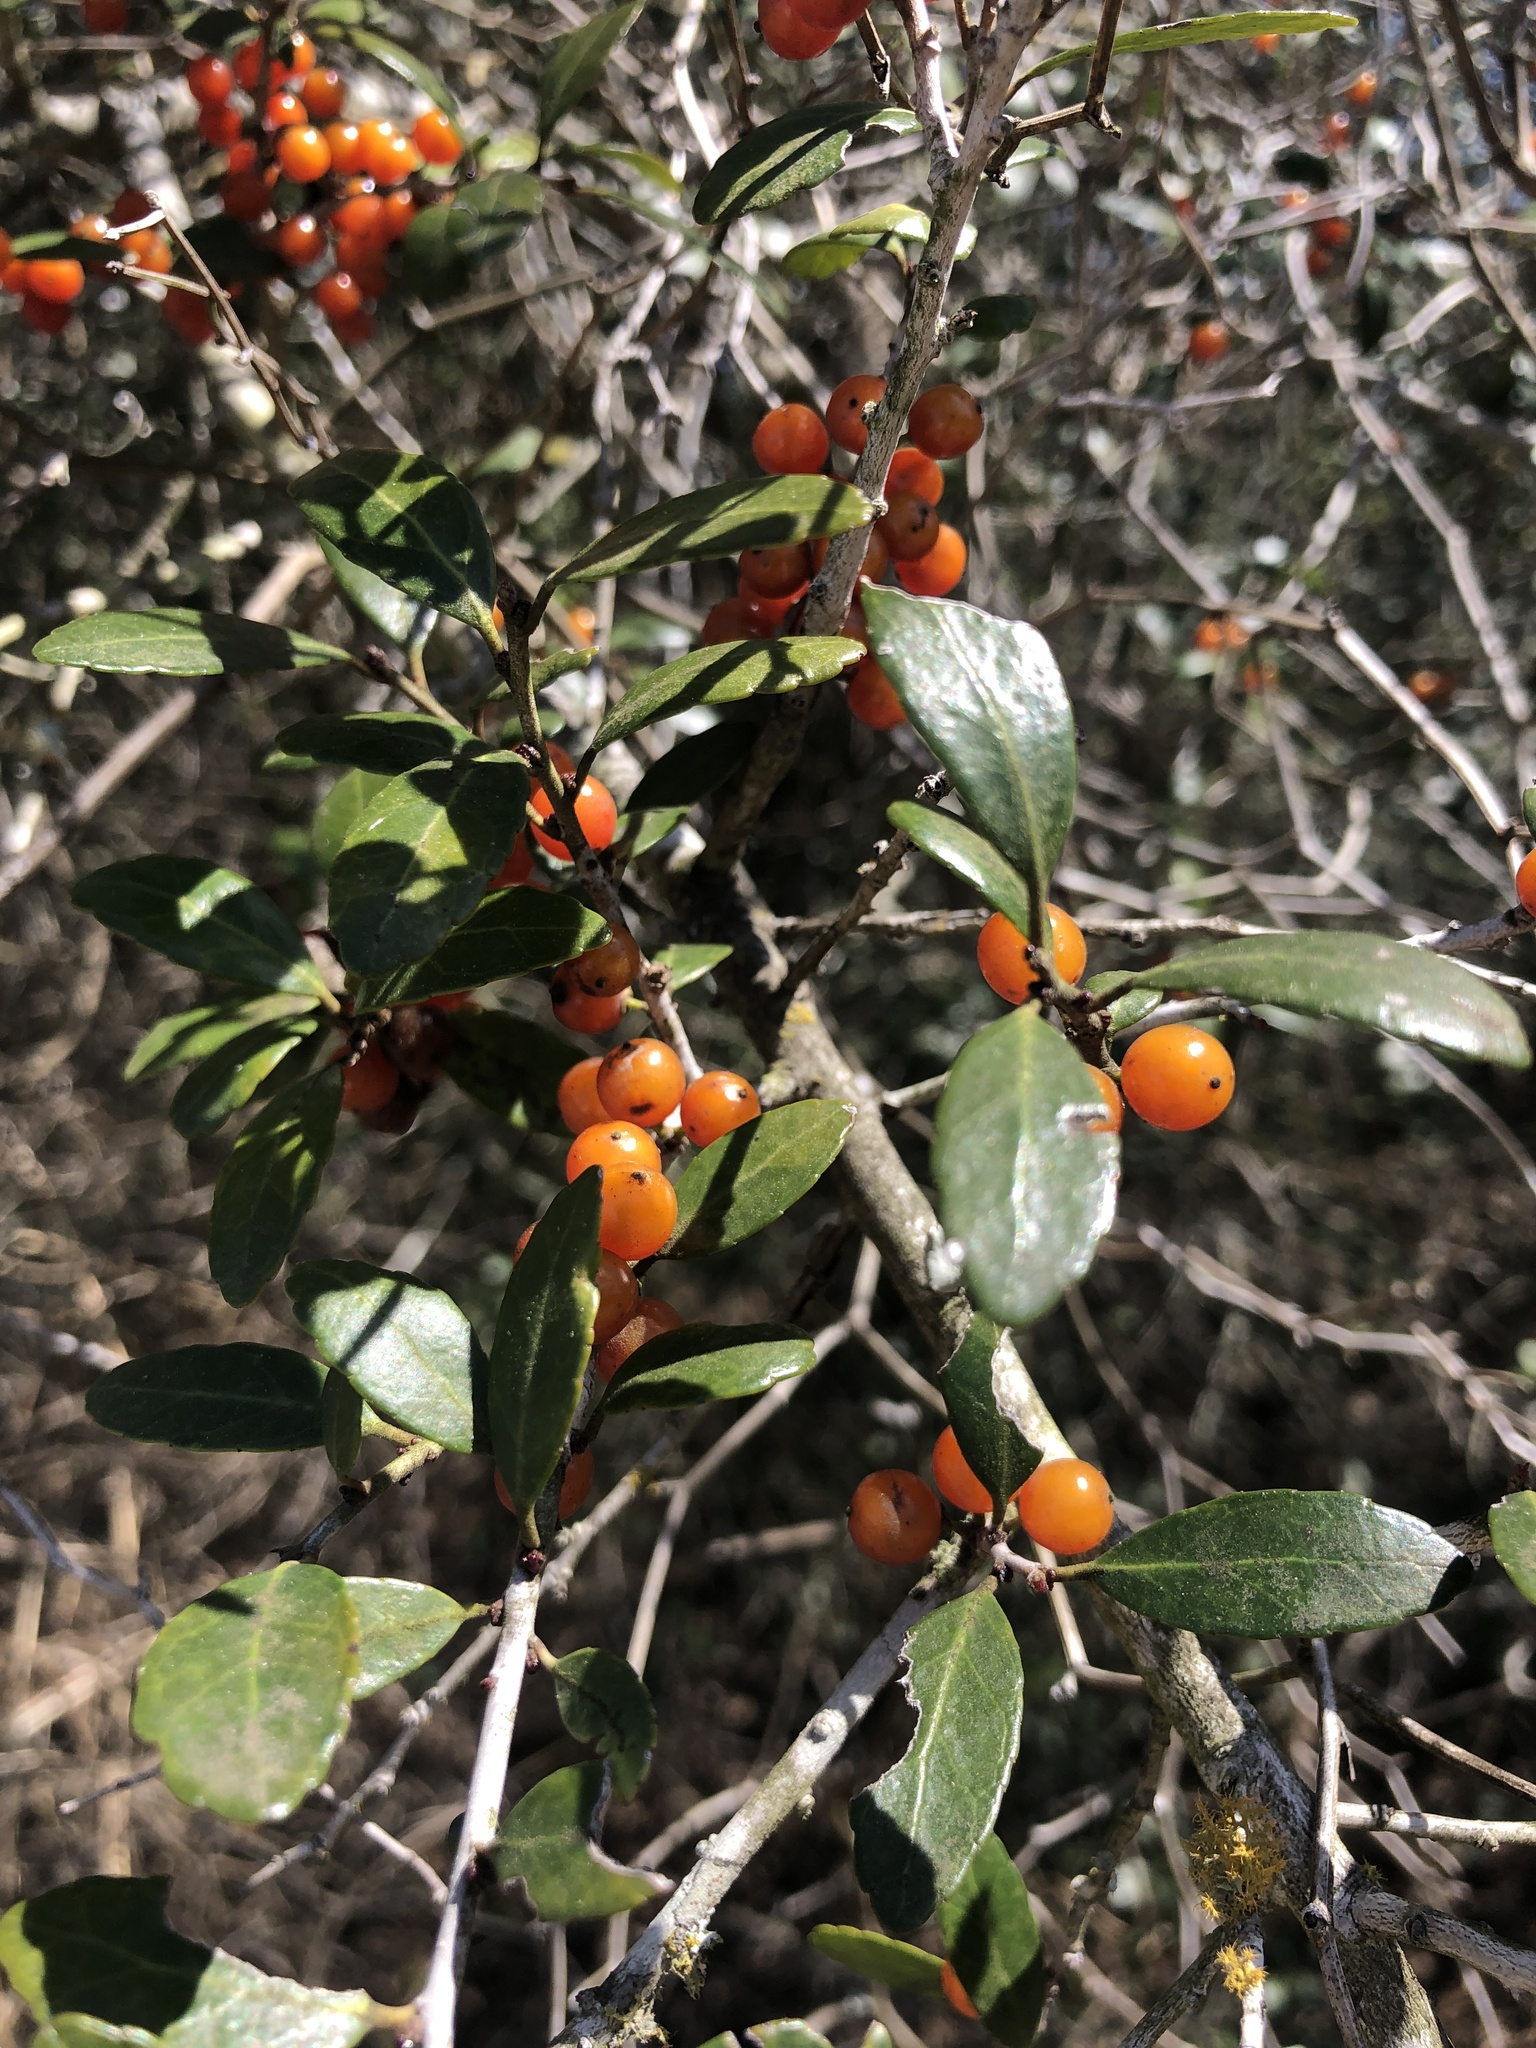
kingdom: Plantae
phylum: Tracheophyta
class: Magnoliopsida
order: Aquifoliales
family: Aquifoliaceae
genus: Ilex
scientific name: Ilex vomitoria
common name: Yaupon holly
